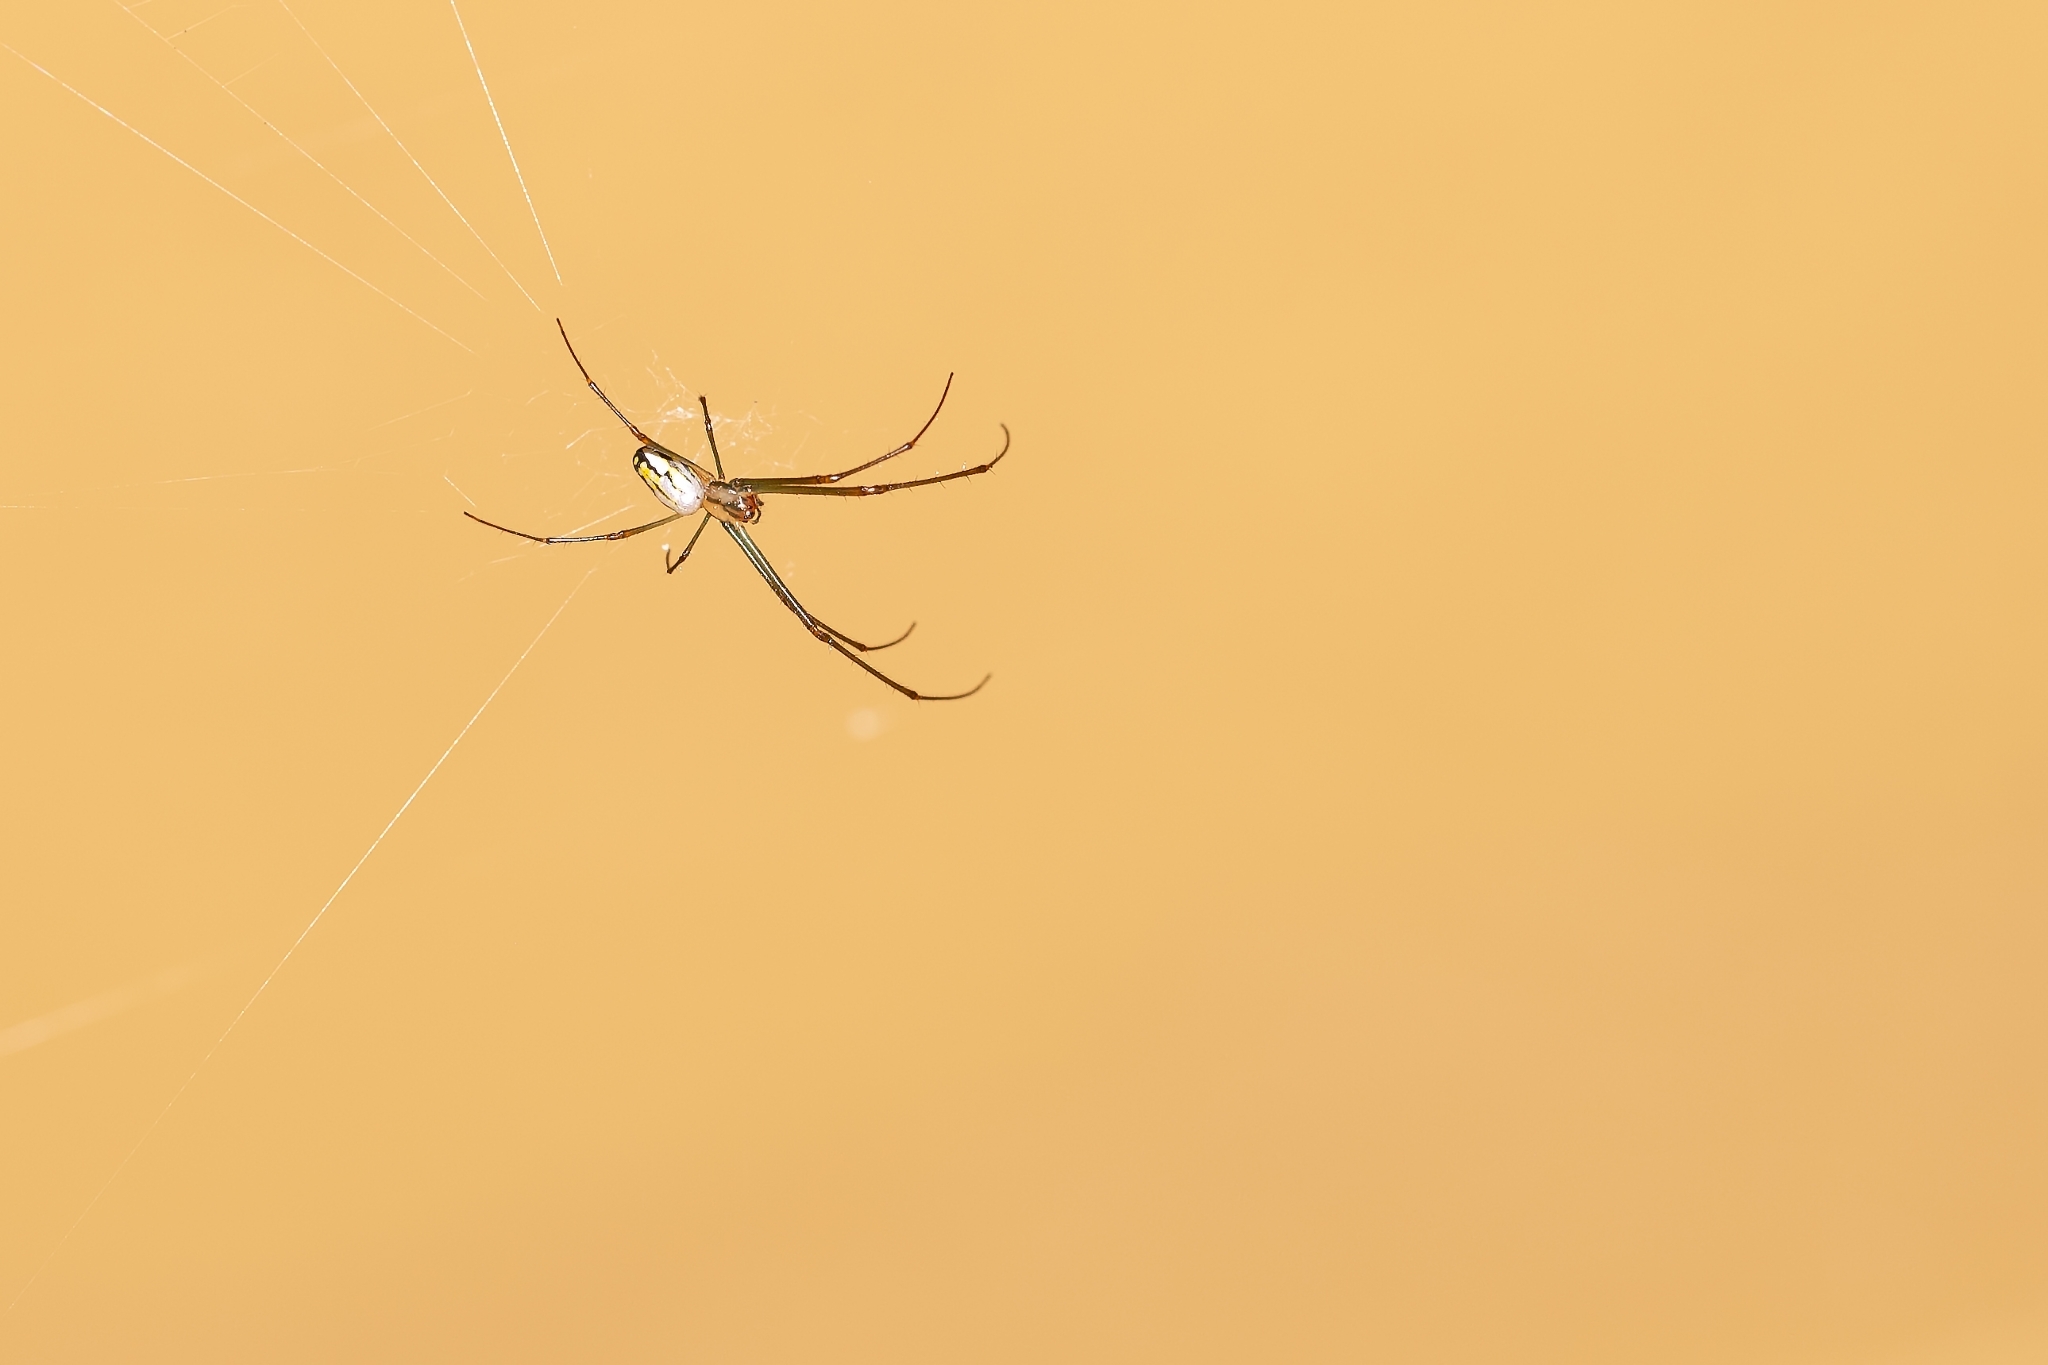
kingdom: Animalia
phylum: Arthropoda
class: Arachnida
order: Araneae
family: Tetragnathidae
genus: Leucauge
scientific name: Leucauge argyra
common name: Longjawed orb weavers
